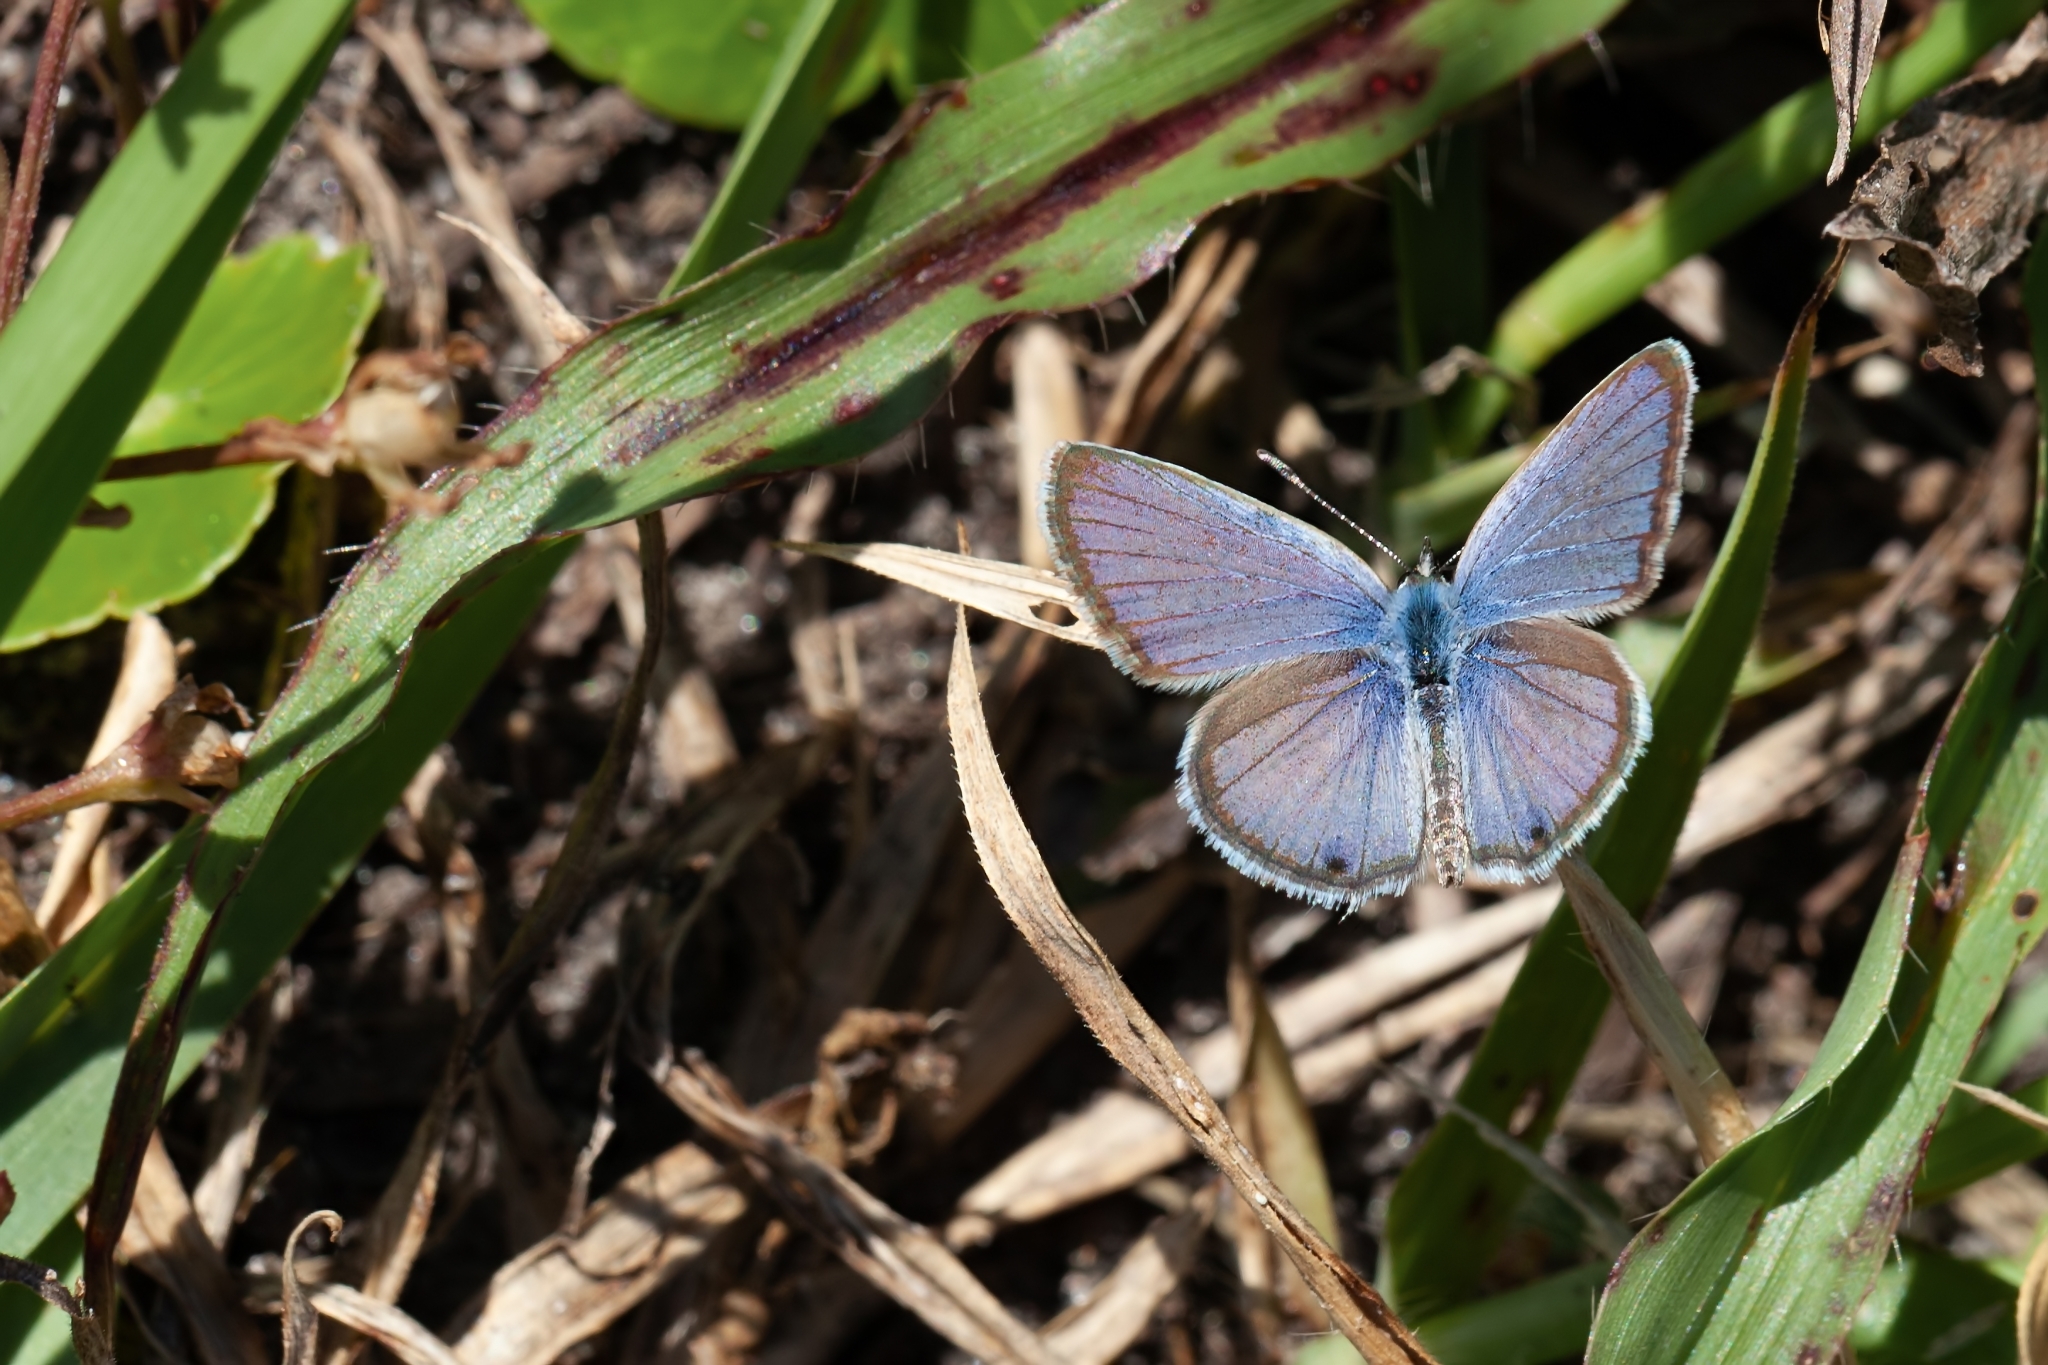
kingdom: Animalia
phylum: Arthropoda
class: Insecta
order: Lepidoptera
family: Lycaenidae
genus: Hemiargus
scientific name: Hemiargus ceraunus
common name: Ceraunus blue
